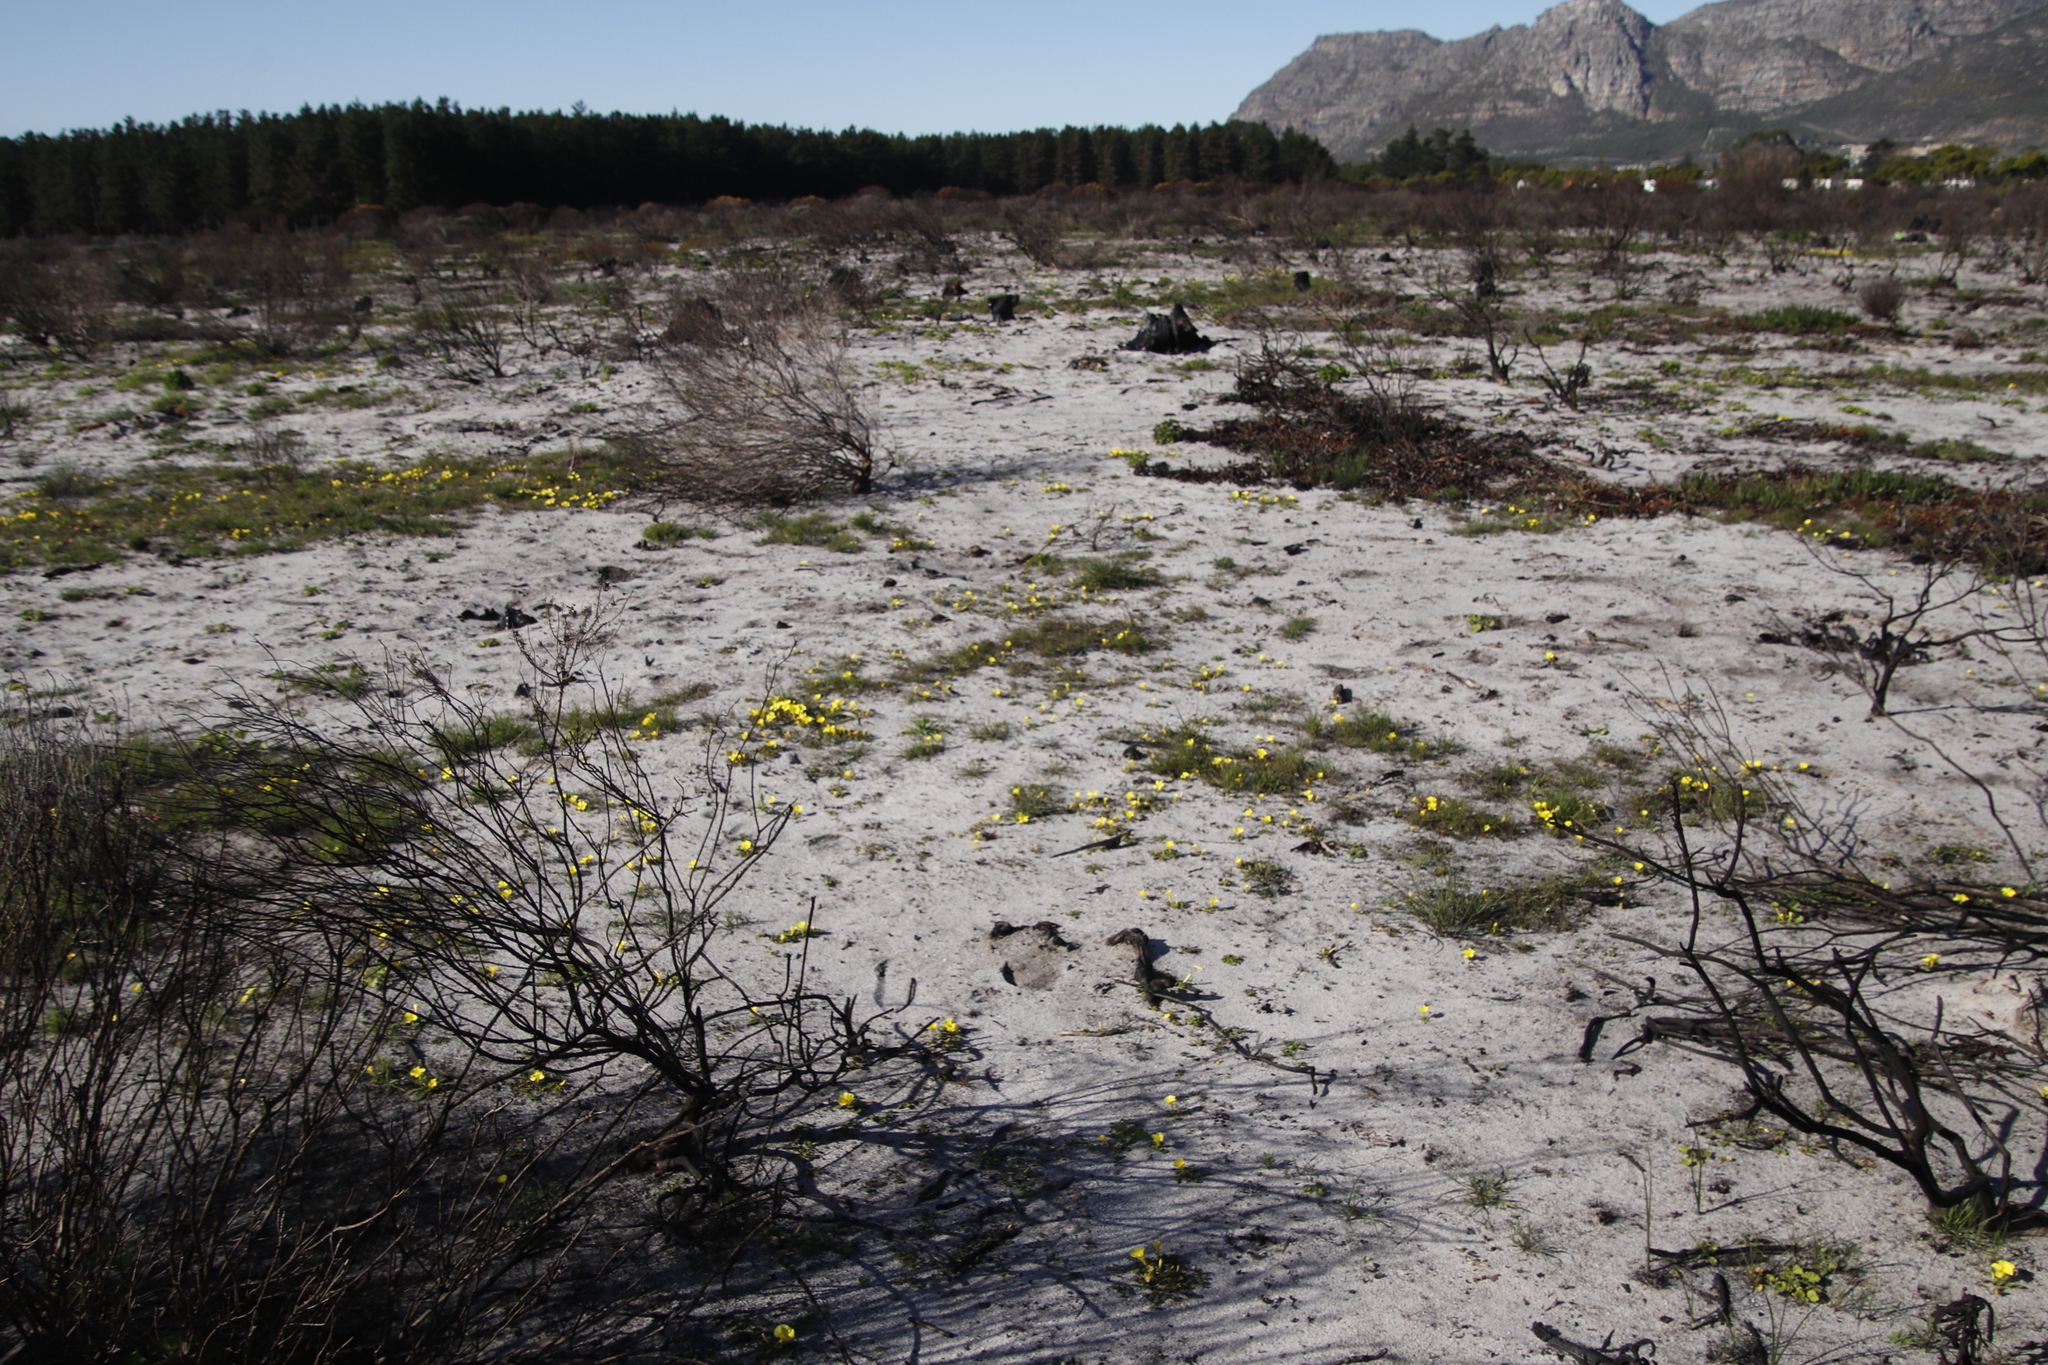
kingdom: Plantae
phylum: Tracheophyta
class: Magnoliopsida
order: Oxalidales
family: Oxalidaceae
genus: Oxalis
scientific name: Oxalis luteola
